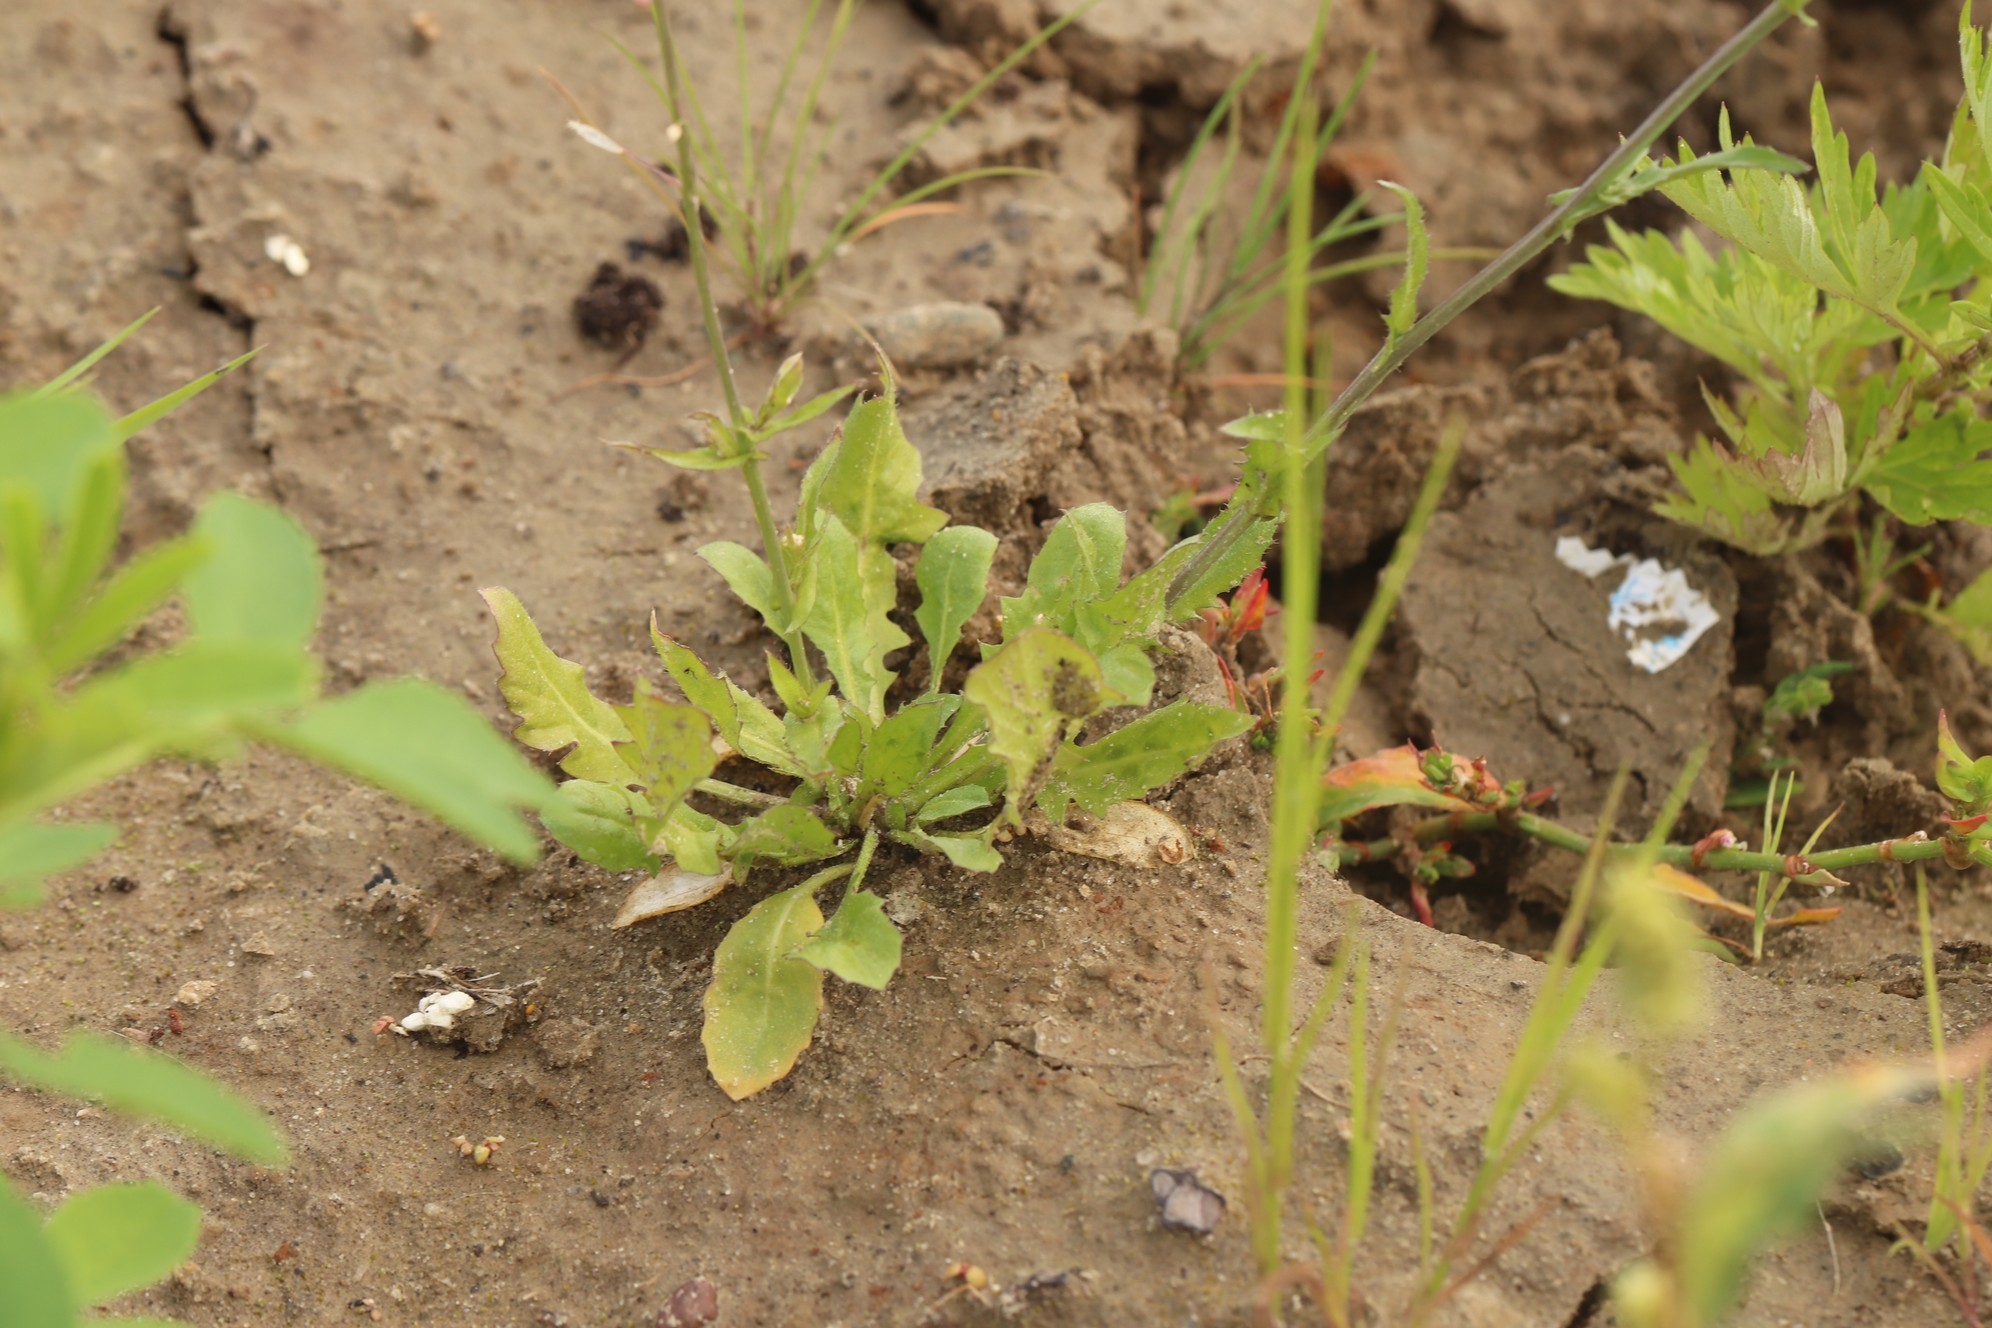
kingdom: Plantae
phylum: Tracheophyta
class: Magnoliopsida
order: Brassicales
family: Brassicaceae
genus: Capsella
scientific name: Capsella bursa-pastoris
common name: Shepherd's purse
